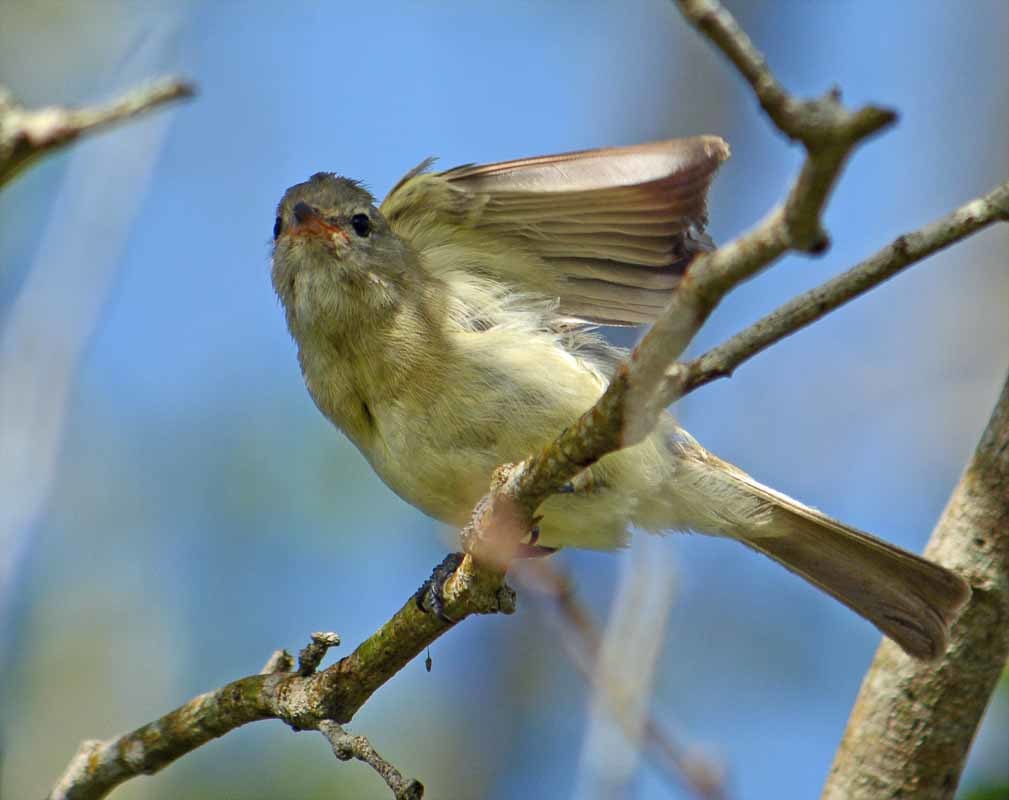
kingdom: Animalia
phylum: Chordata
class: Aves
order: Passeriformes
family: Tyrannidae
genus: Camptostoma
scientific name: Camptostoma imberbe
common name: Northern beardless-tyrannulet
